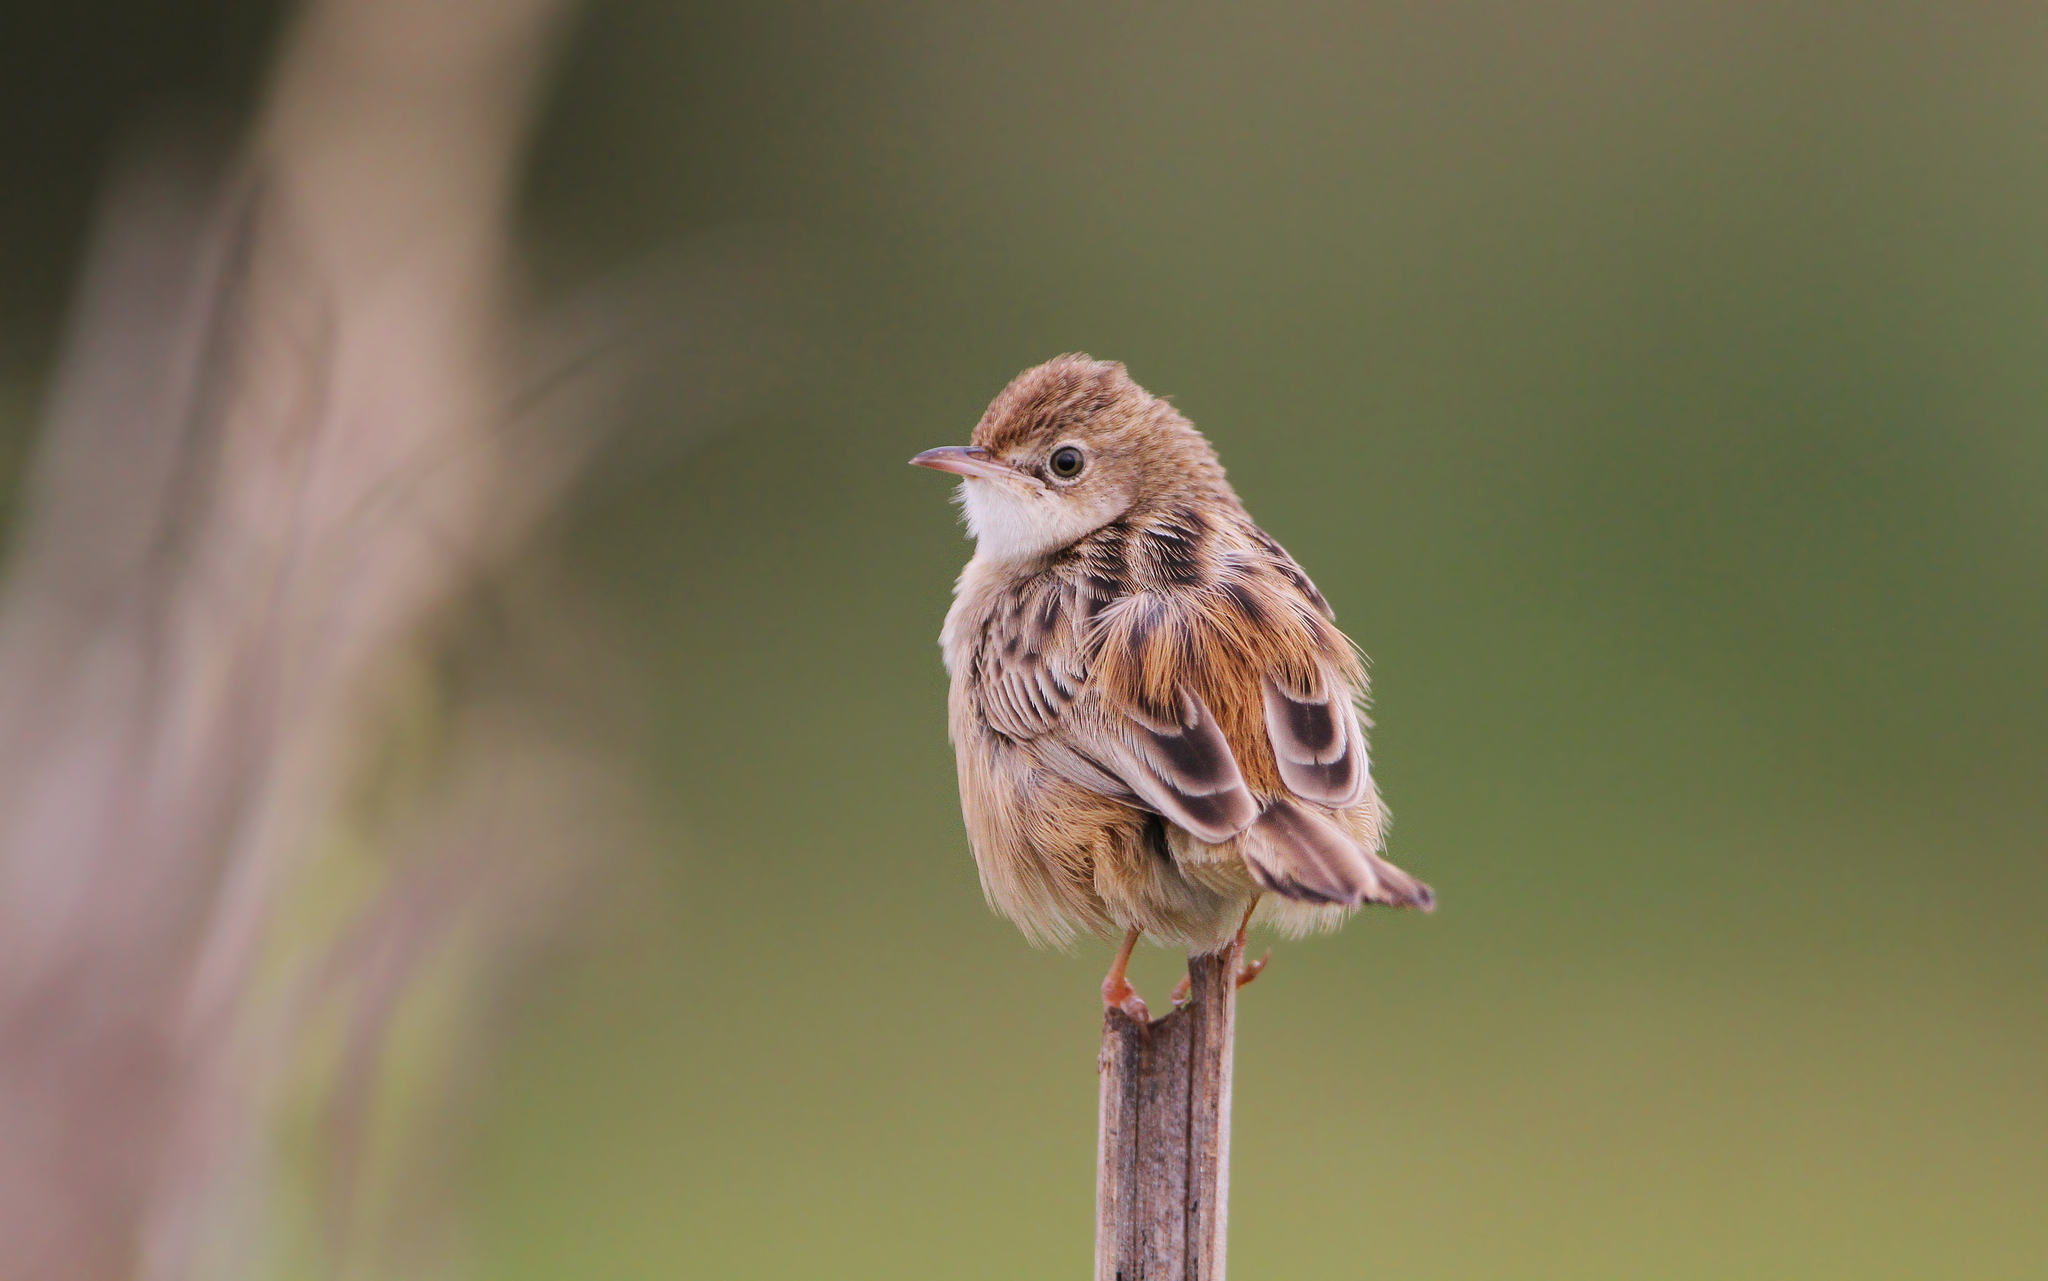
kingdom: Animalia
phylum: Chordata
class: Aves
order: Passeriformes
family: Cisticolidae
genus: Cisticola
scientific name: Cisticola juncidis
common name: Zitting cisticola
